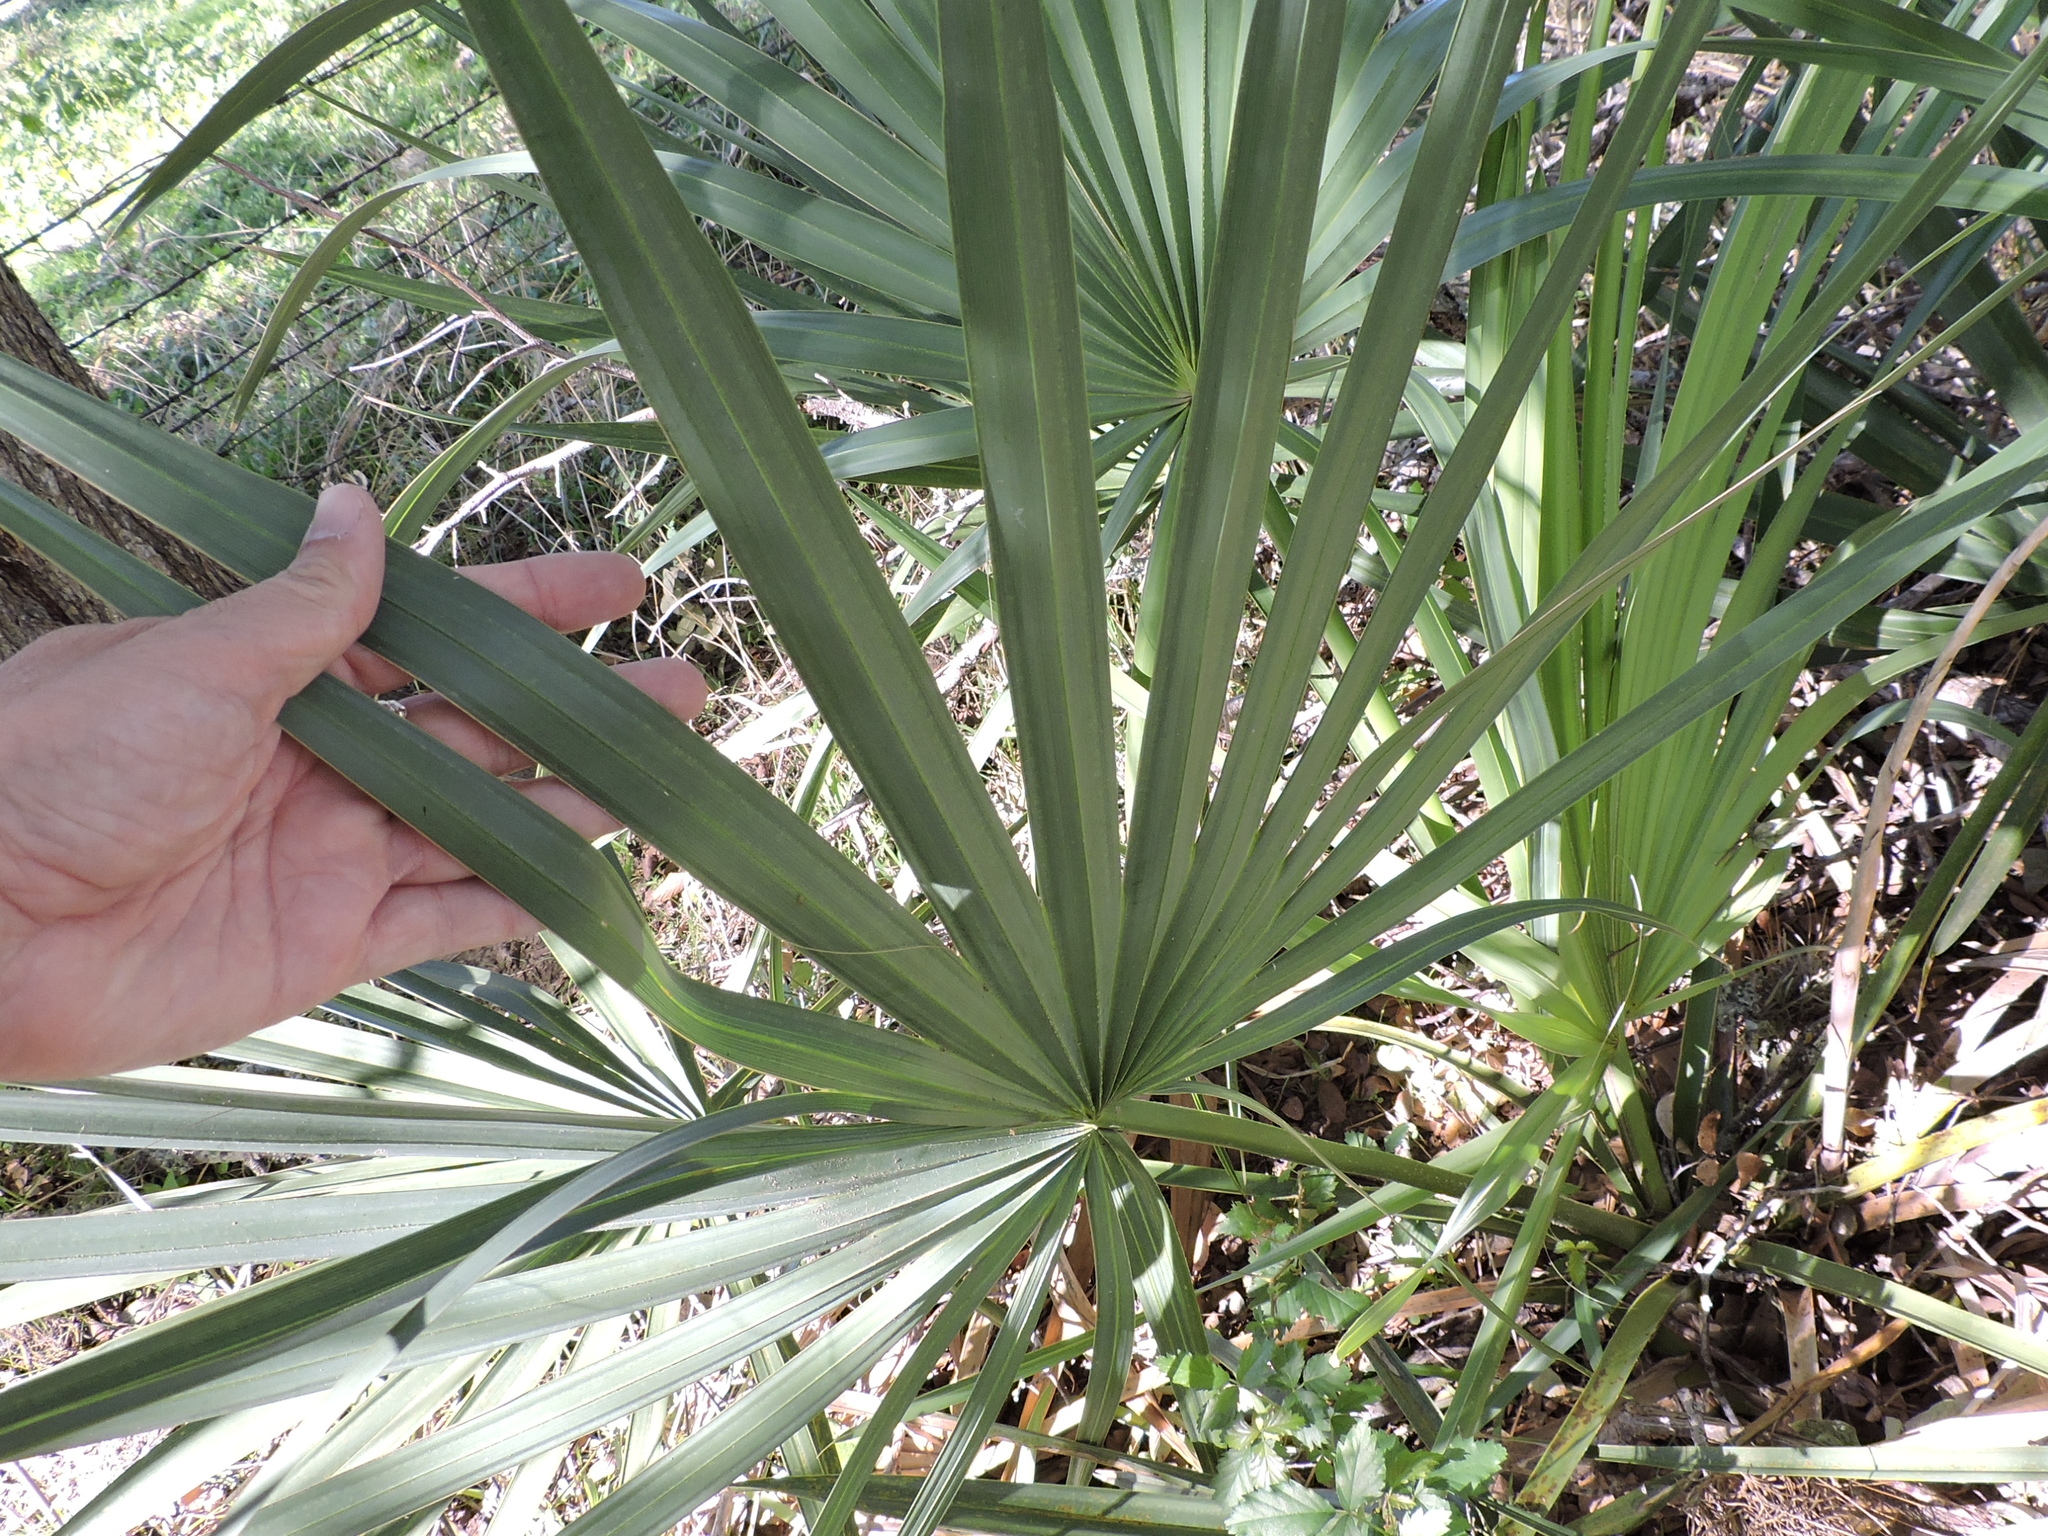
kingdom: Plantae
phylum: Tracheophyta
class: Liliopsida
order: Arecales
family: Arecaceae
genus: Sabal
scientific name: Sabal minor
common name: Dwarf palmetto
